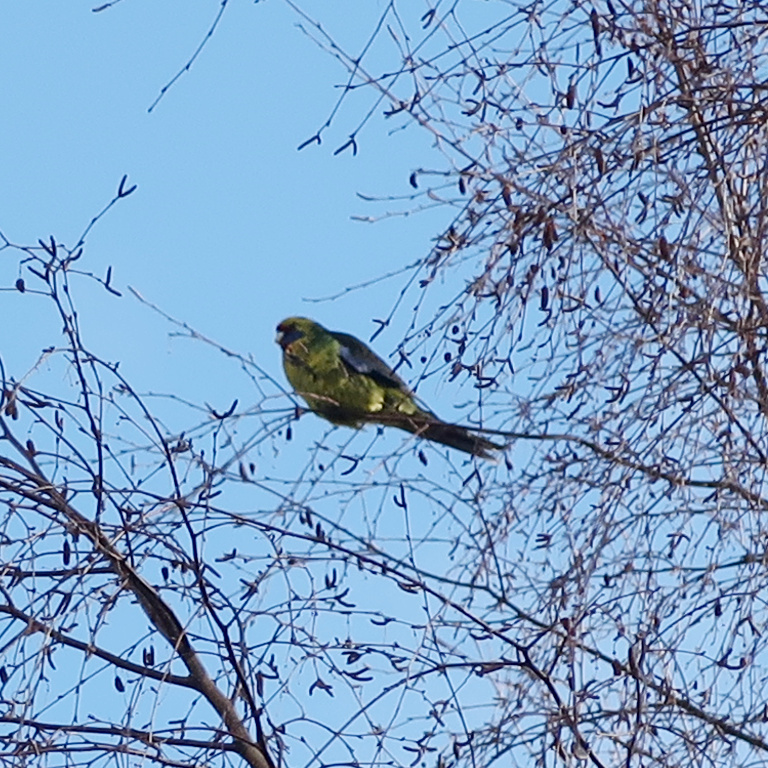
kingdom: Animalia
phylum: Chordata
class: Aves
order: Psittaciformes
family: Psittacidae
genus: Platycercus
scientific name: Platycercus caledonicus
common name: Green rosella
